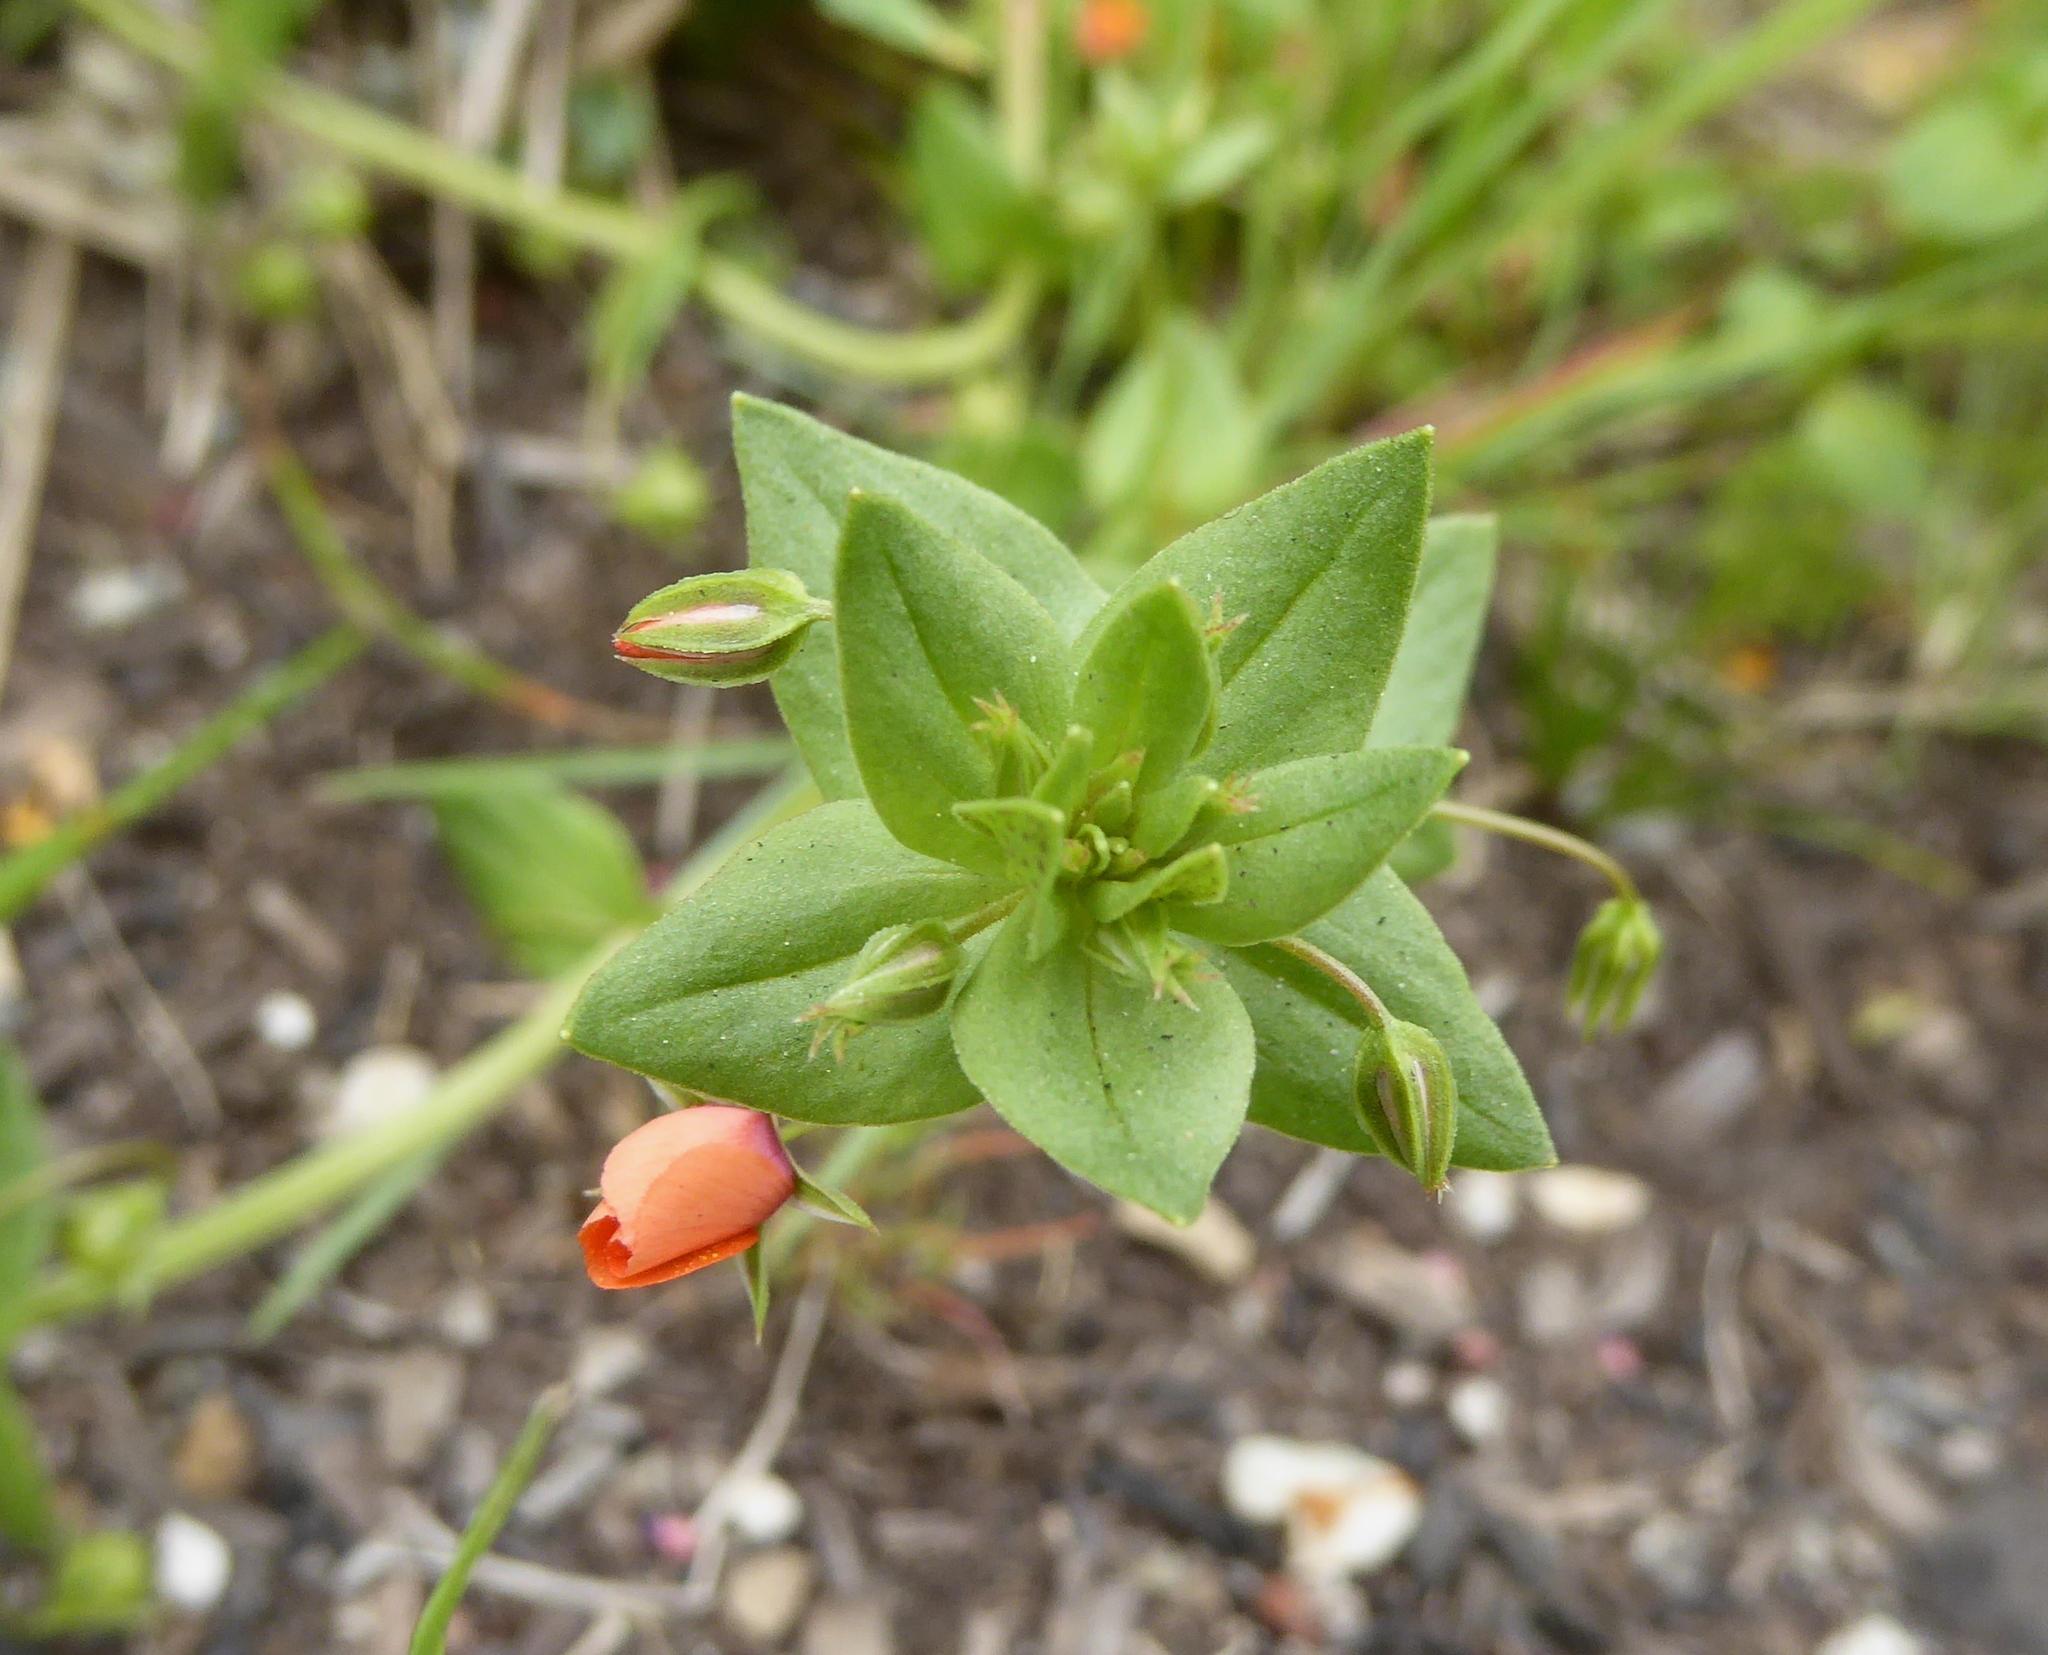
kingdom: Plantae
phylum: Tracheophyta
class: Magnoliopsida
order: Ericales
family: Primulaceae
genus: Lysimachia
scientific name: Lysimachia arvensis
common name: Scarlet pimpernel
